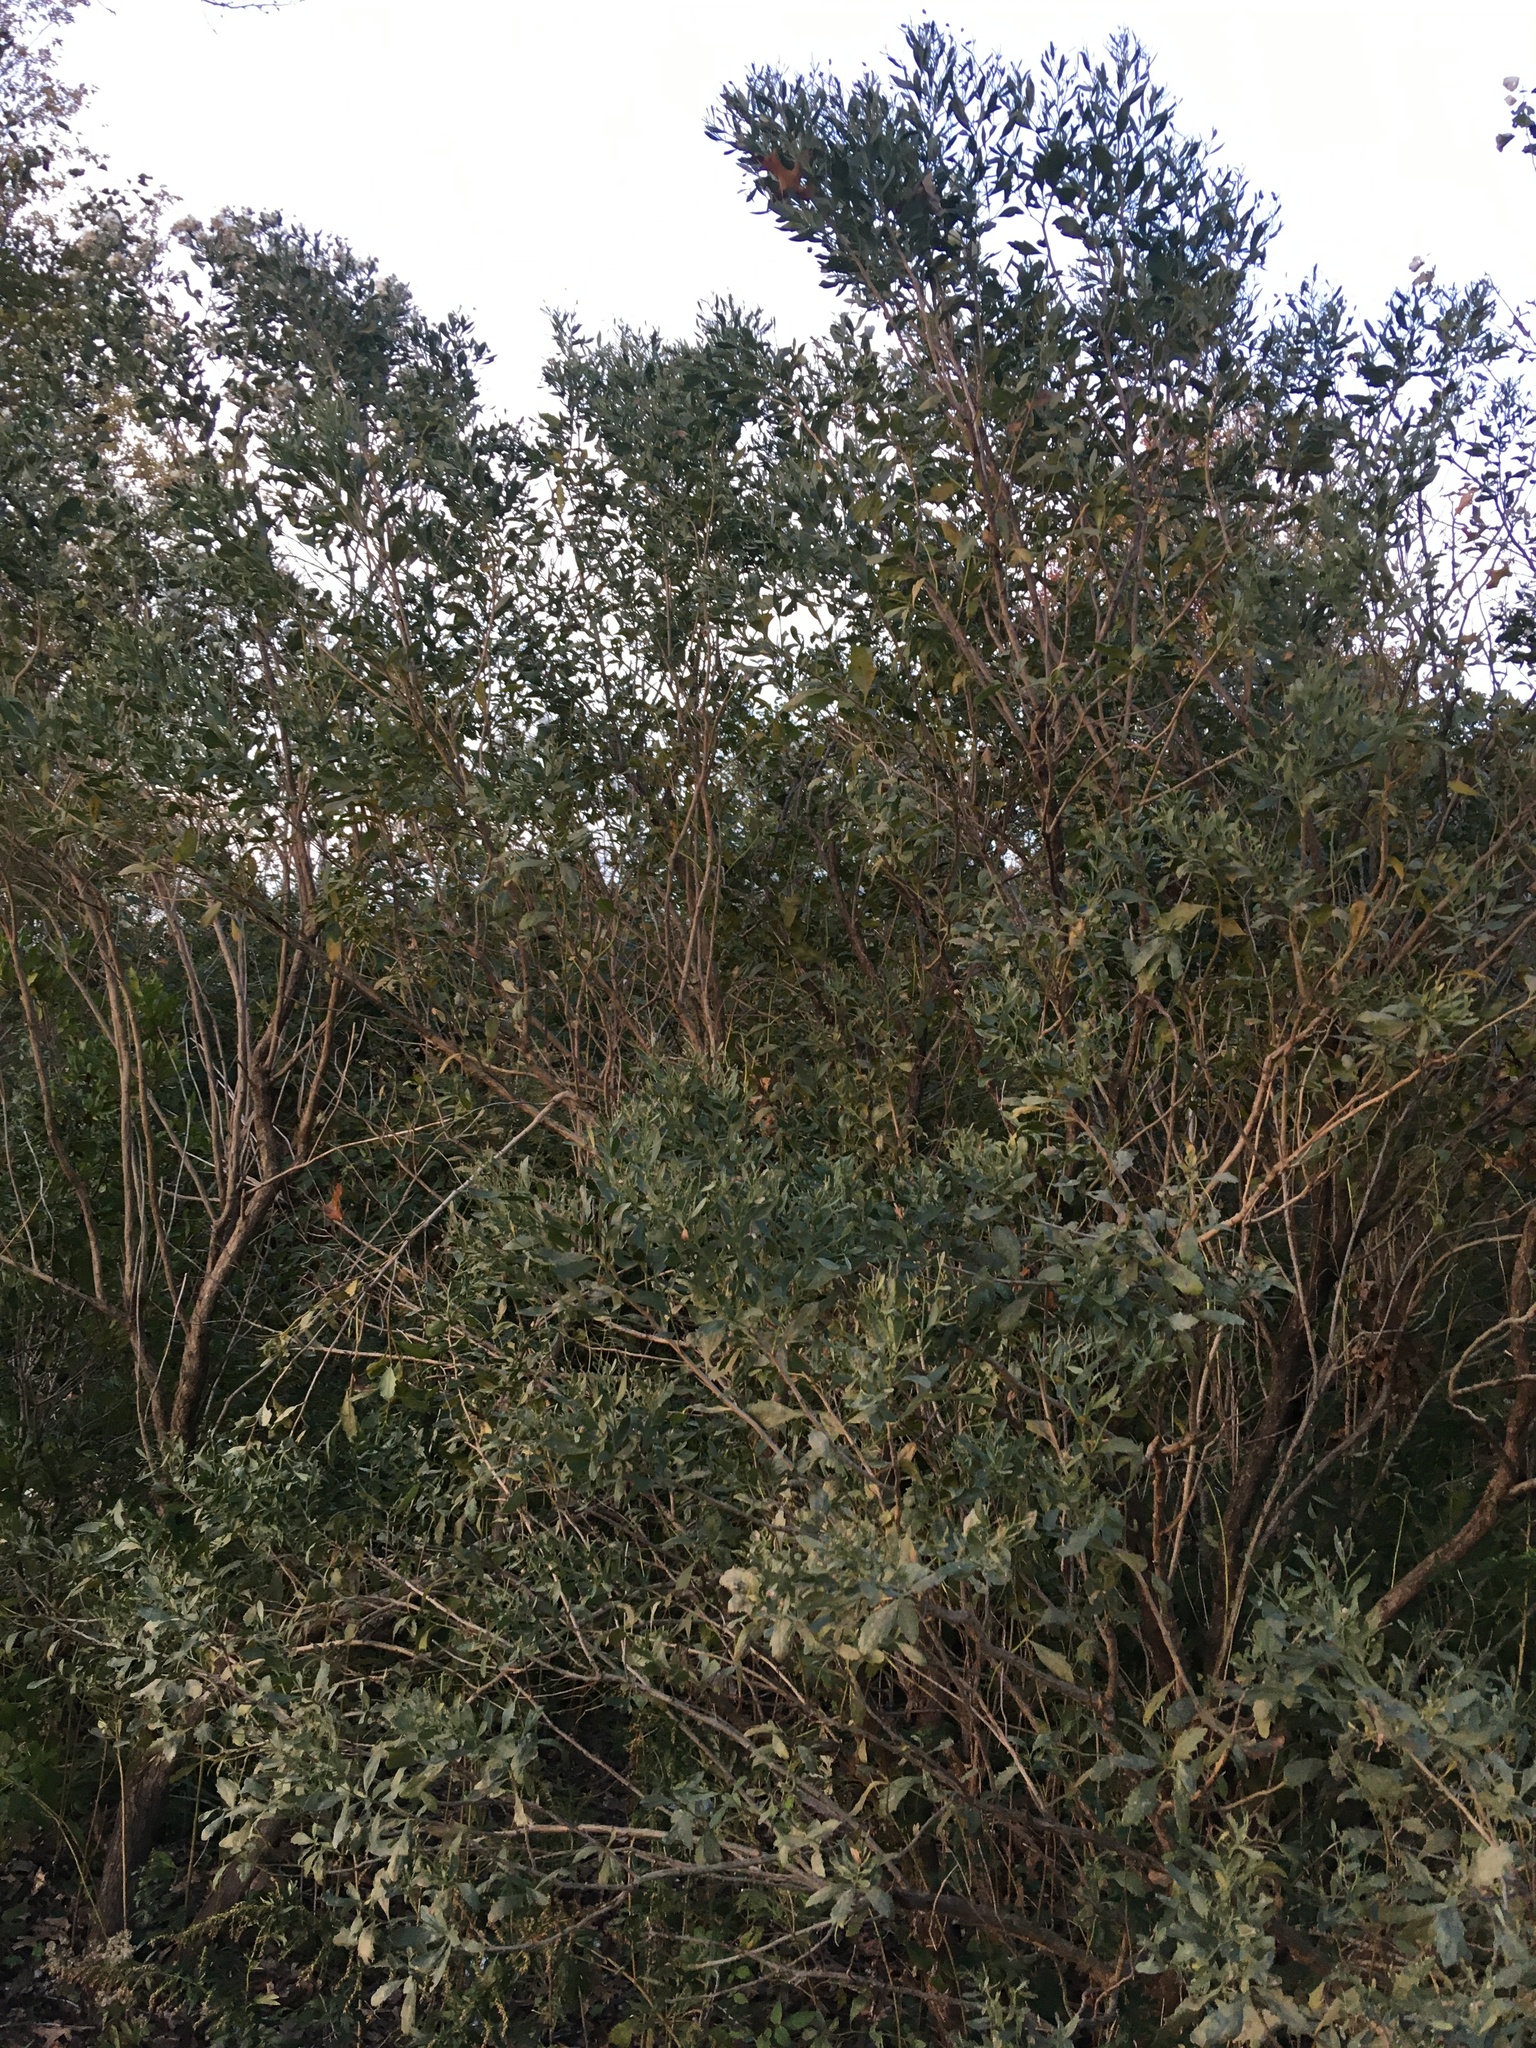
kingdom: Plantae
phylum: Tracheophyta
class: Magnoliopsida
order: Asterales
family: Asteraceae
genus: Baccharis
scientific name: Baccharis halimifolia
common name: Eastern baccharis
